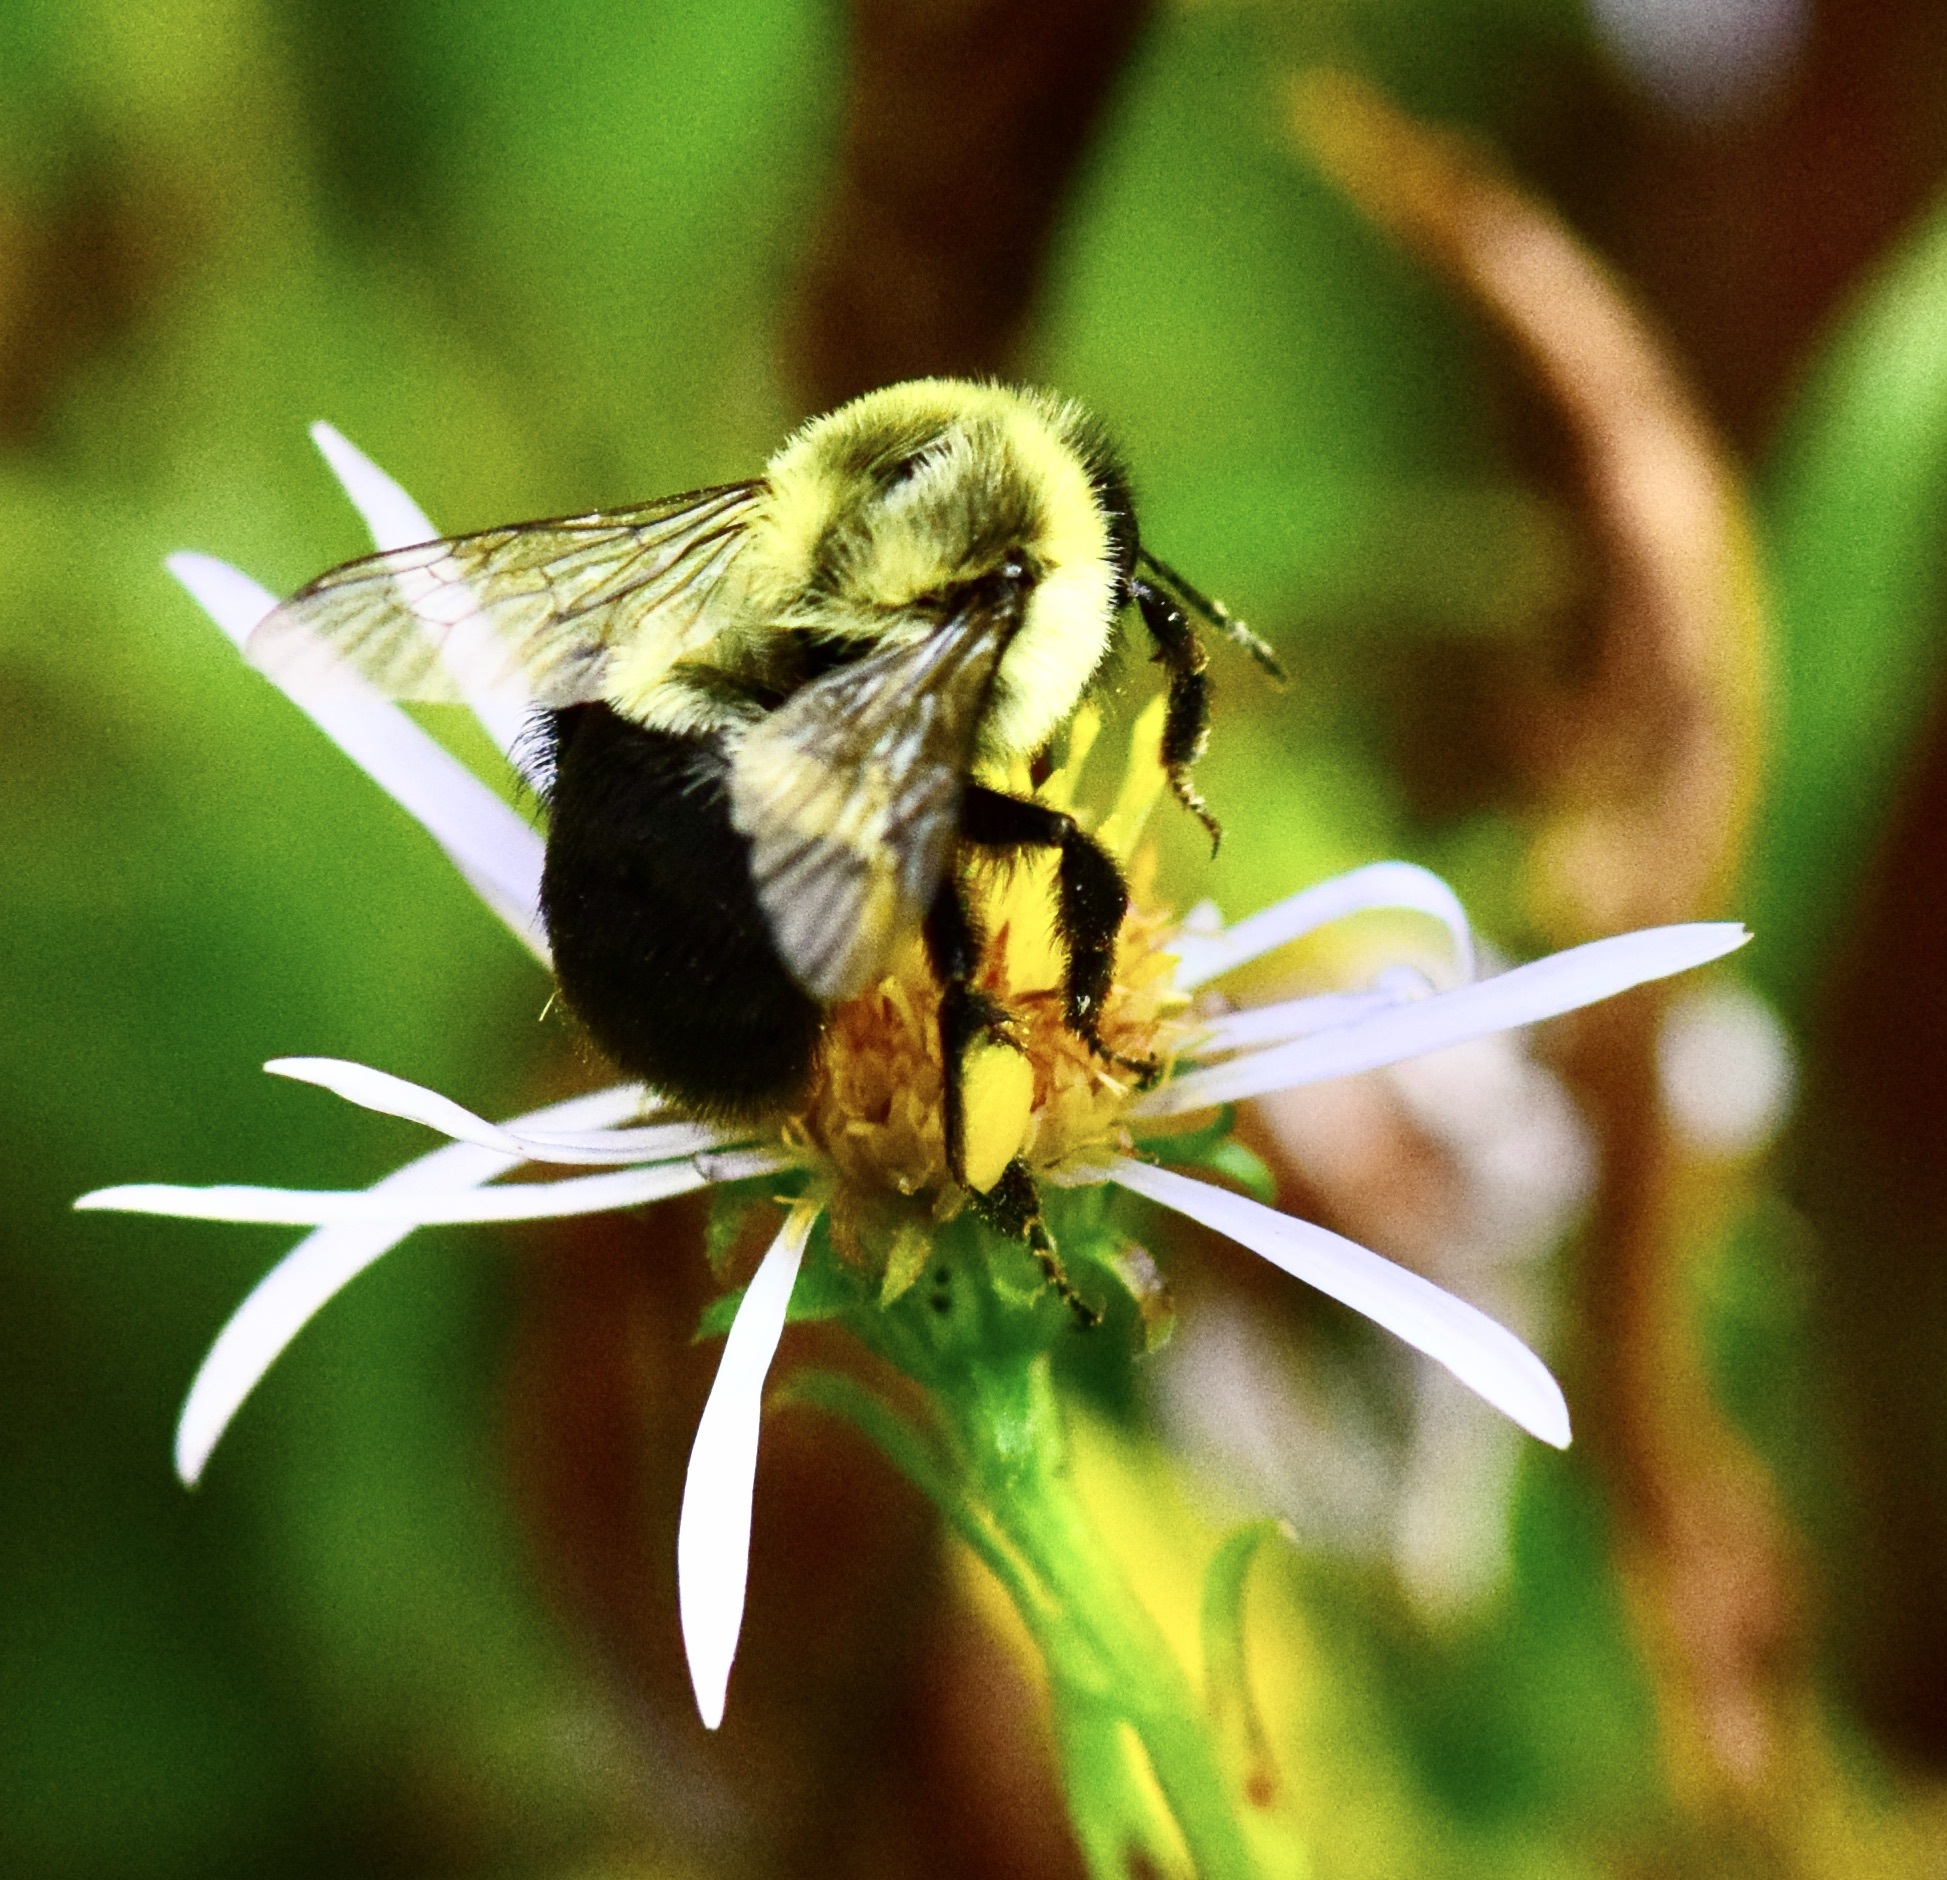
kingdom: Animalia
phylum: Arthropoda
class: Insecta
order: Hymenoptera
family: Apidae
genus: Bombus
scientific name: Bombus impatiens
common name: Common eastern bumble bee
